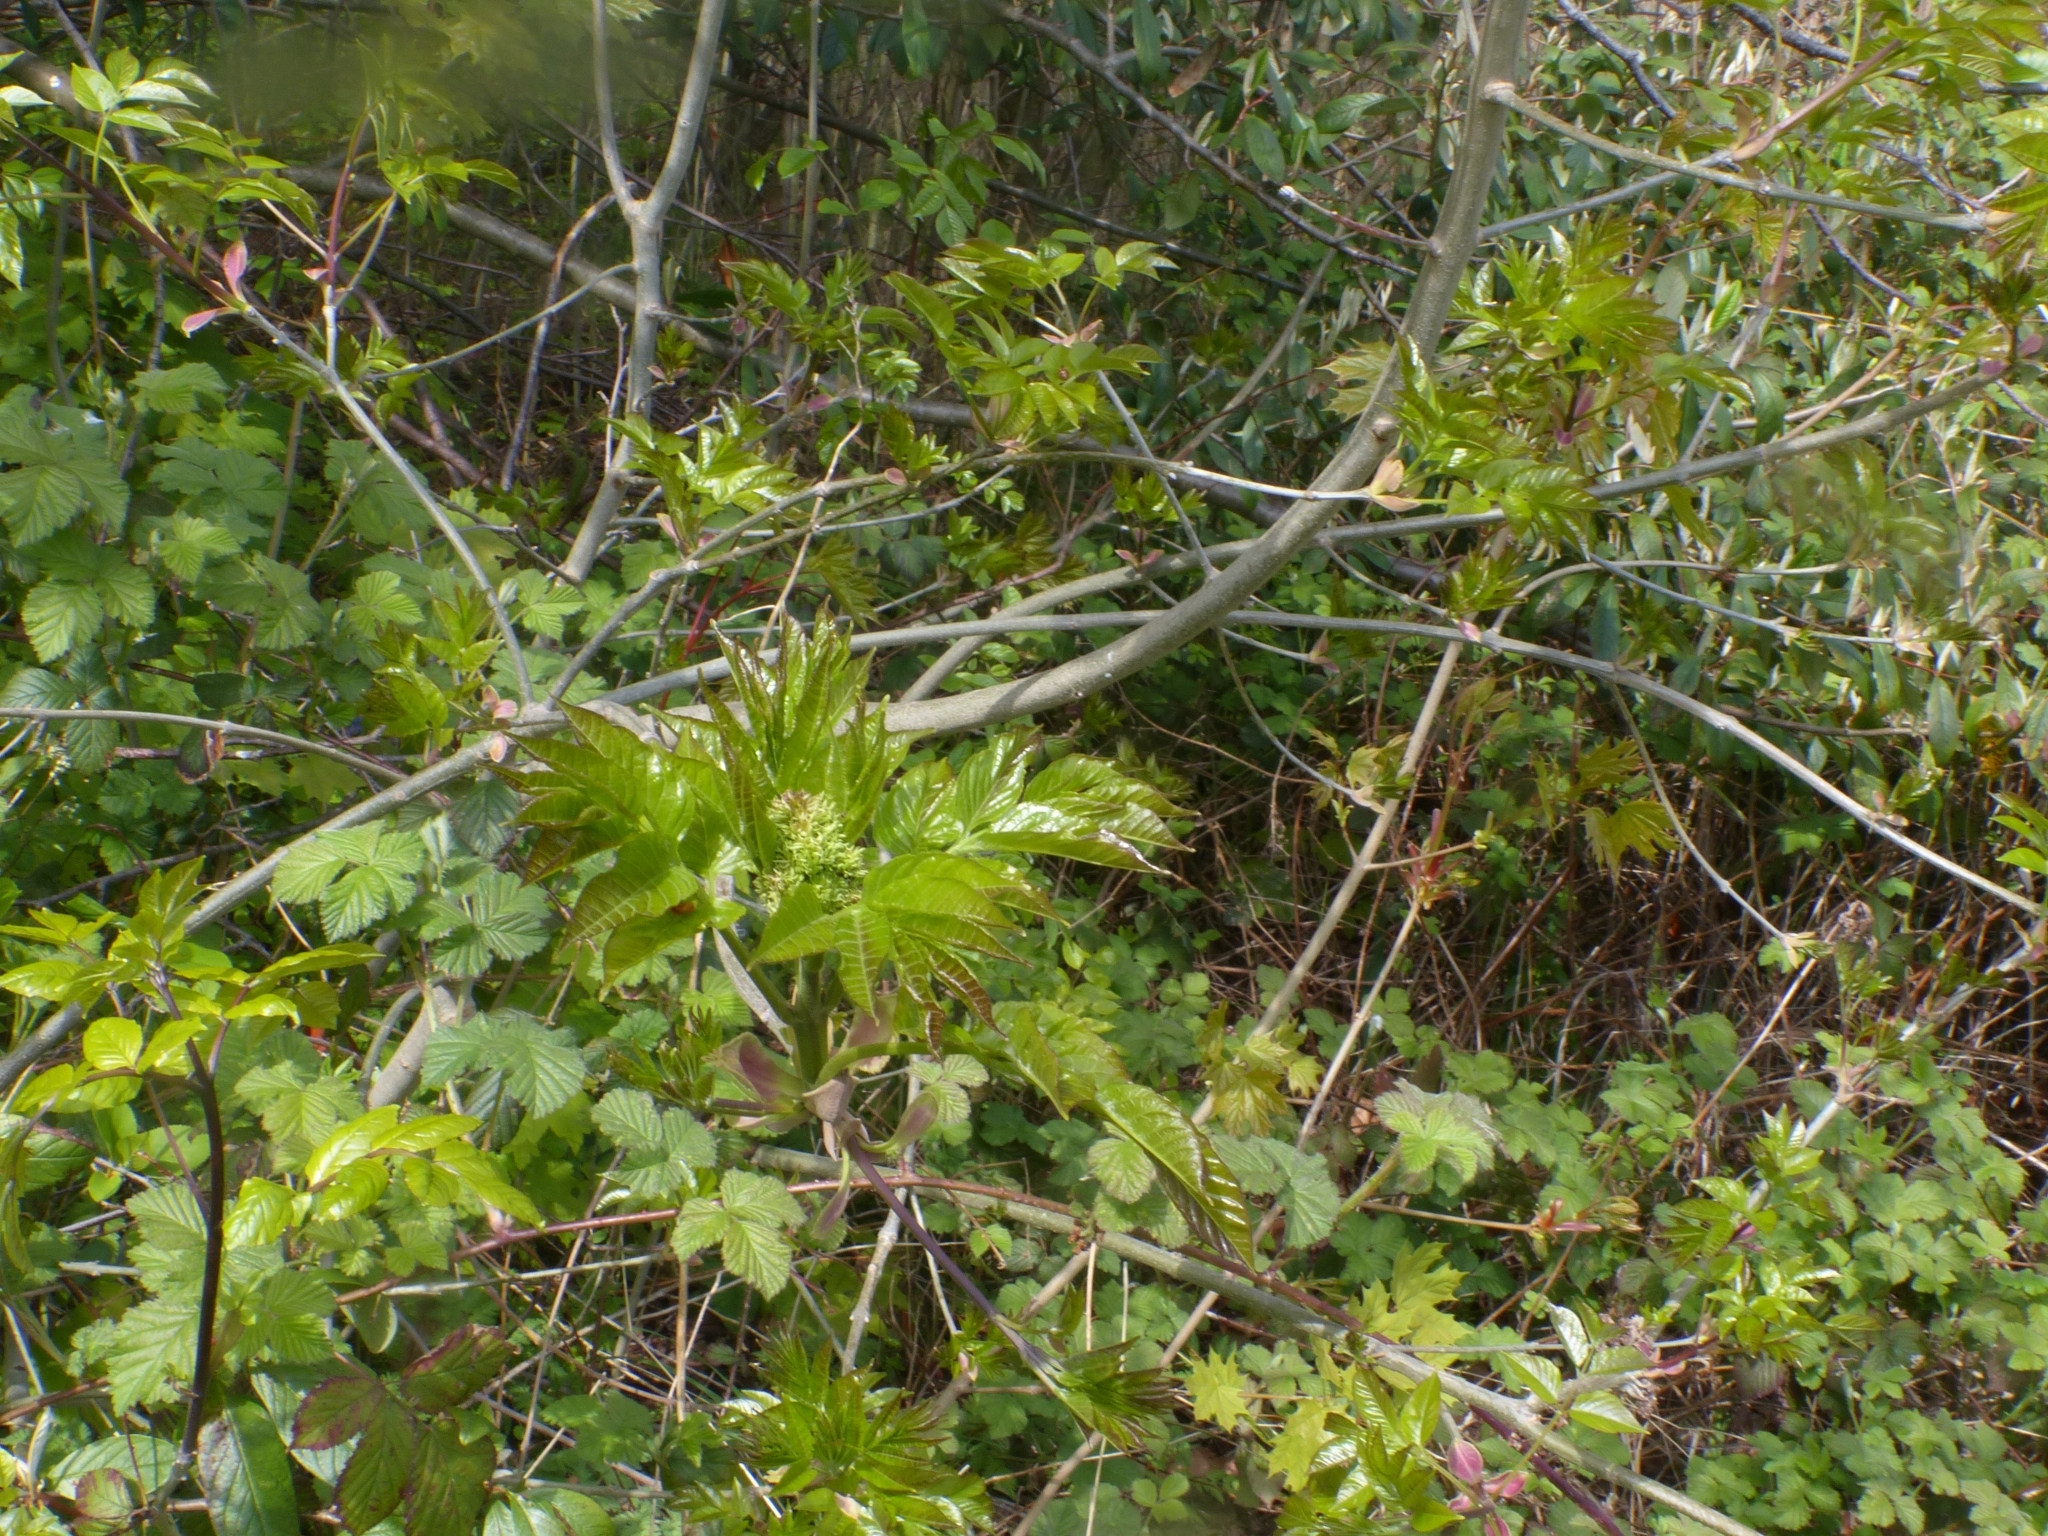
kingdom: Plantae
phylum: Tracheophyta
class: Magnoliopsida
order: Lamiales
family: Oleaceae
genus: Fraxinus
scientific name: Fraxinus ornus
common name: Manna ash
